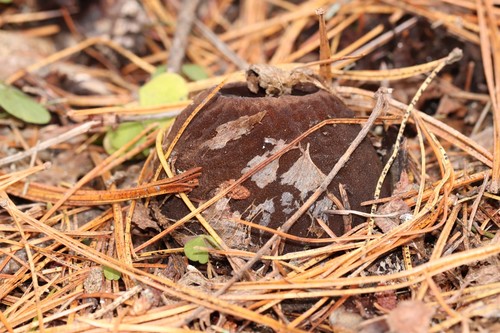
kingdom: Fungi
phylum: Ascomycota
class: Pezizomycetes
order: Pezizales
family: Sarcosomataceae
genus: Sarcosoma
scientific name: Sarcosoma globosum
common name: Charred-pancake cup
